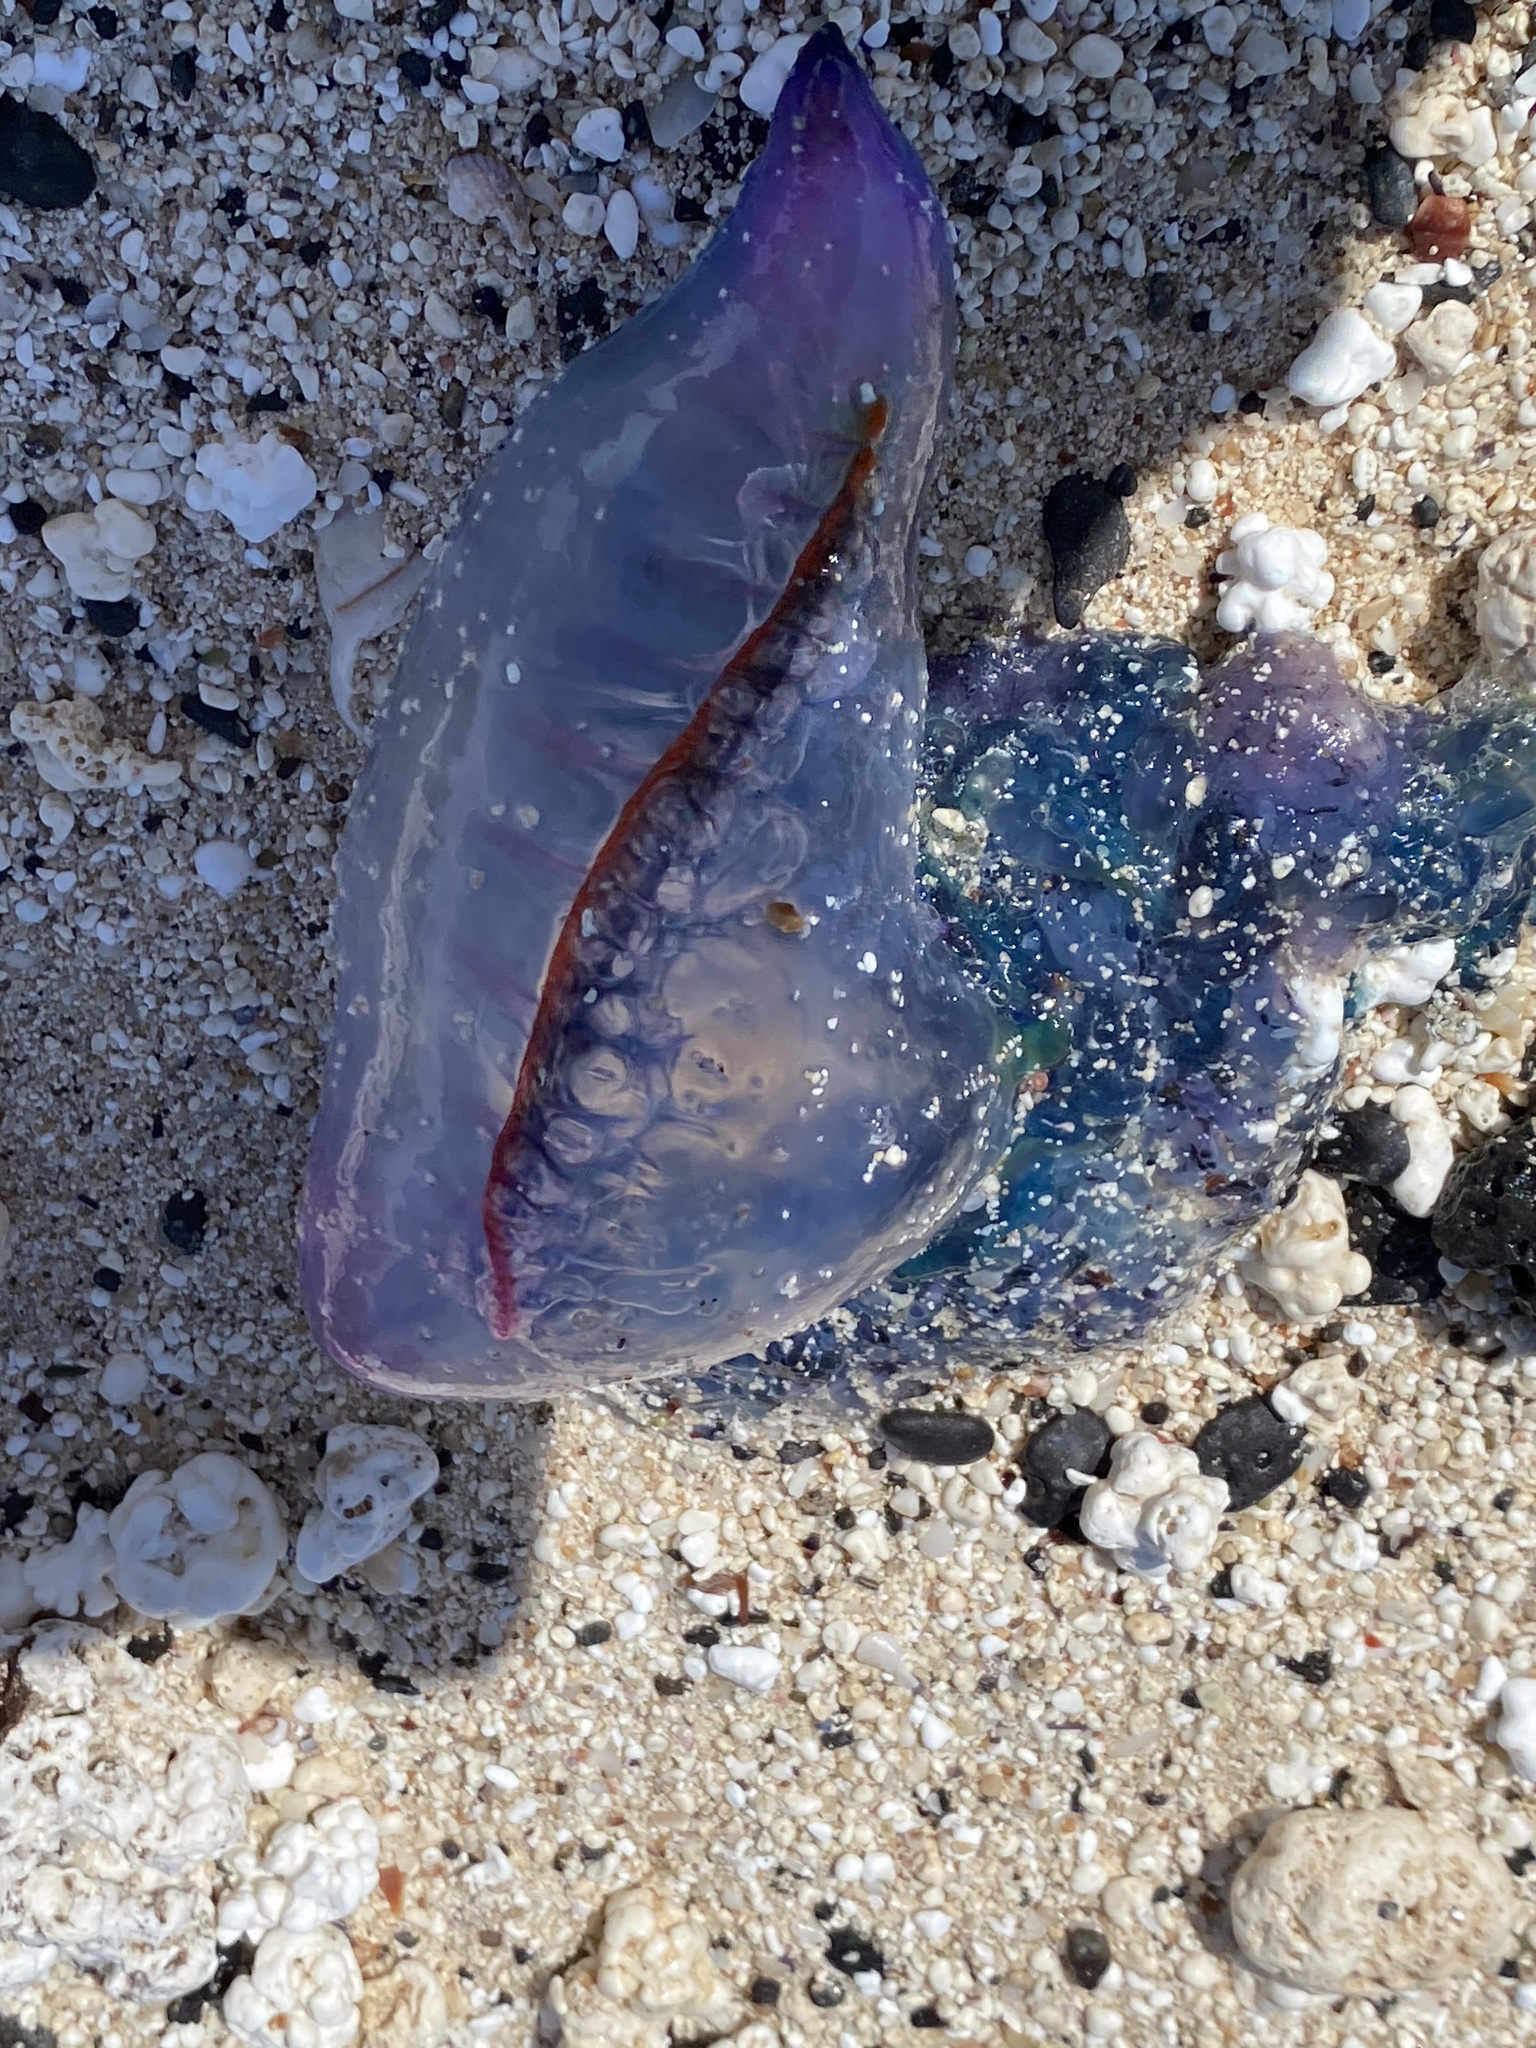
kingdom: Animalia
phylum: Cnidaria
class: Hydrozoa
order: Siphonophorae
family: Physaliidae
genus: Physalia
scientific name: Physalia physalis
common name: Portuguese man-of-war
